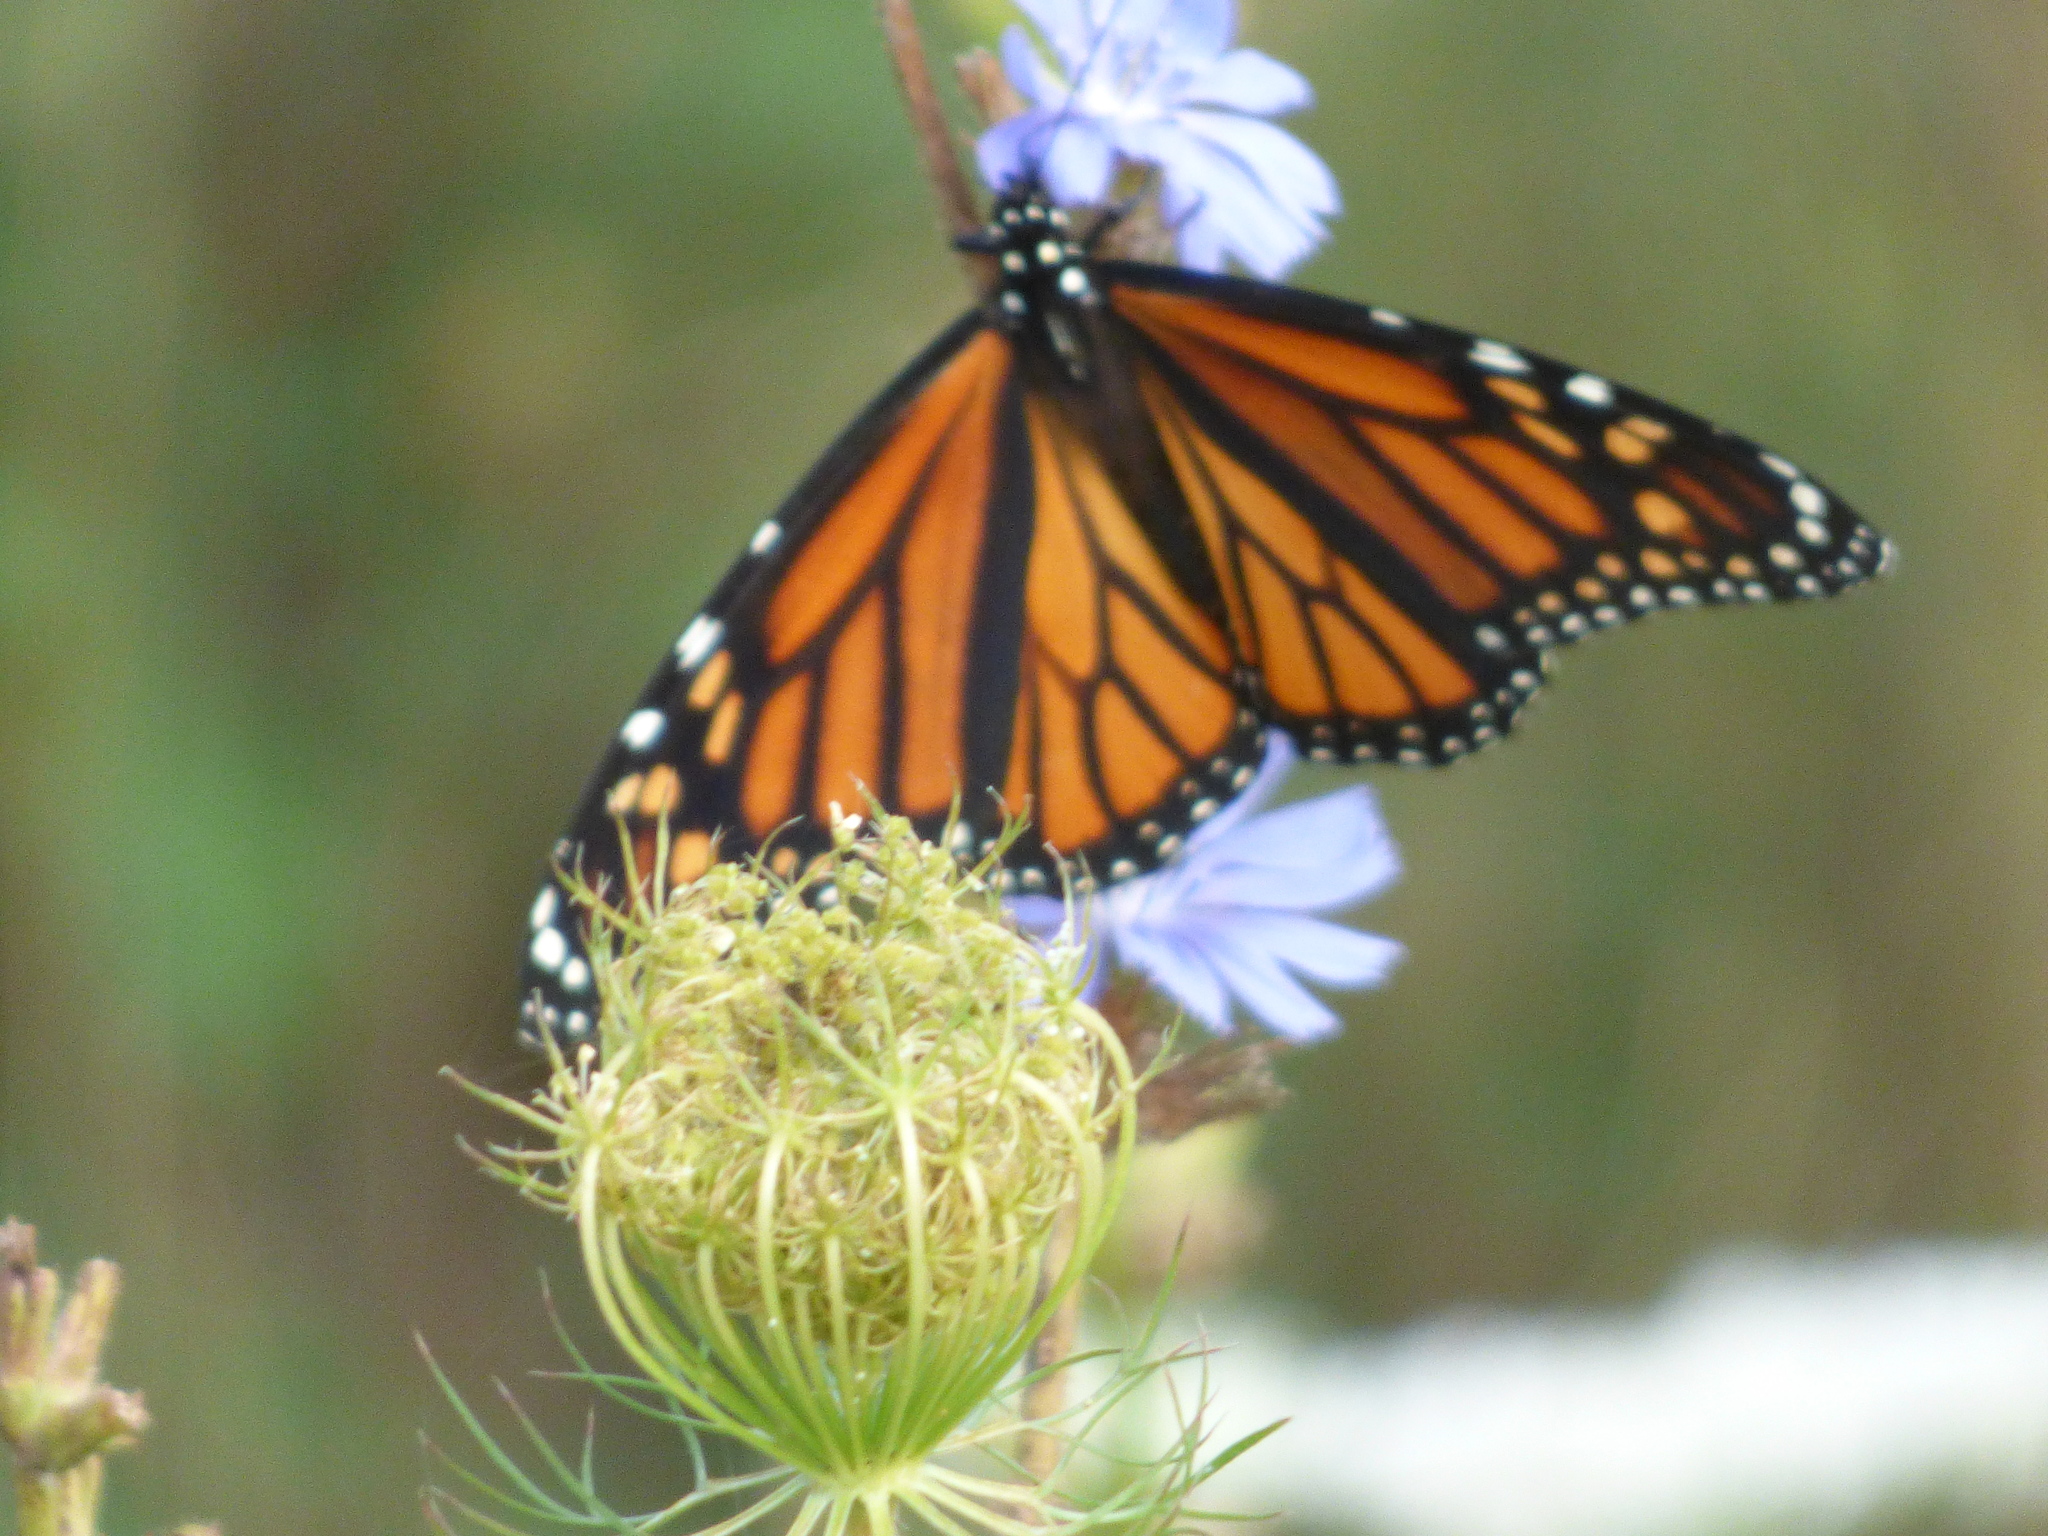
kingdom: Animalia
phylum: Arthropoda
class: Insecta
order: Lepidoptera
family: Nymphalidae
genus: Danaus
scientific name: Danaus plexippus
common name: Monarch
